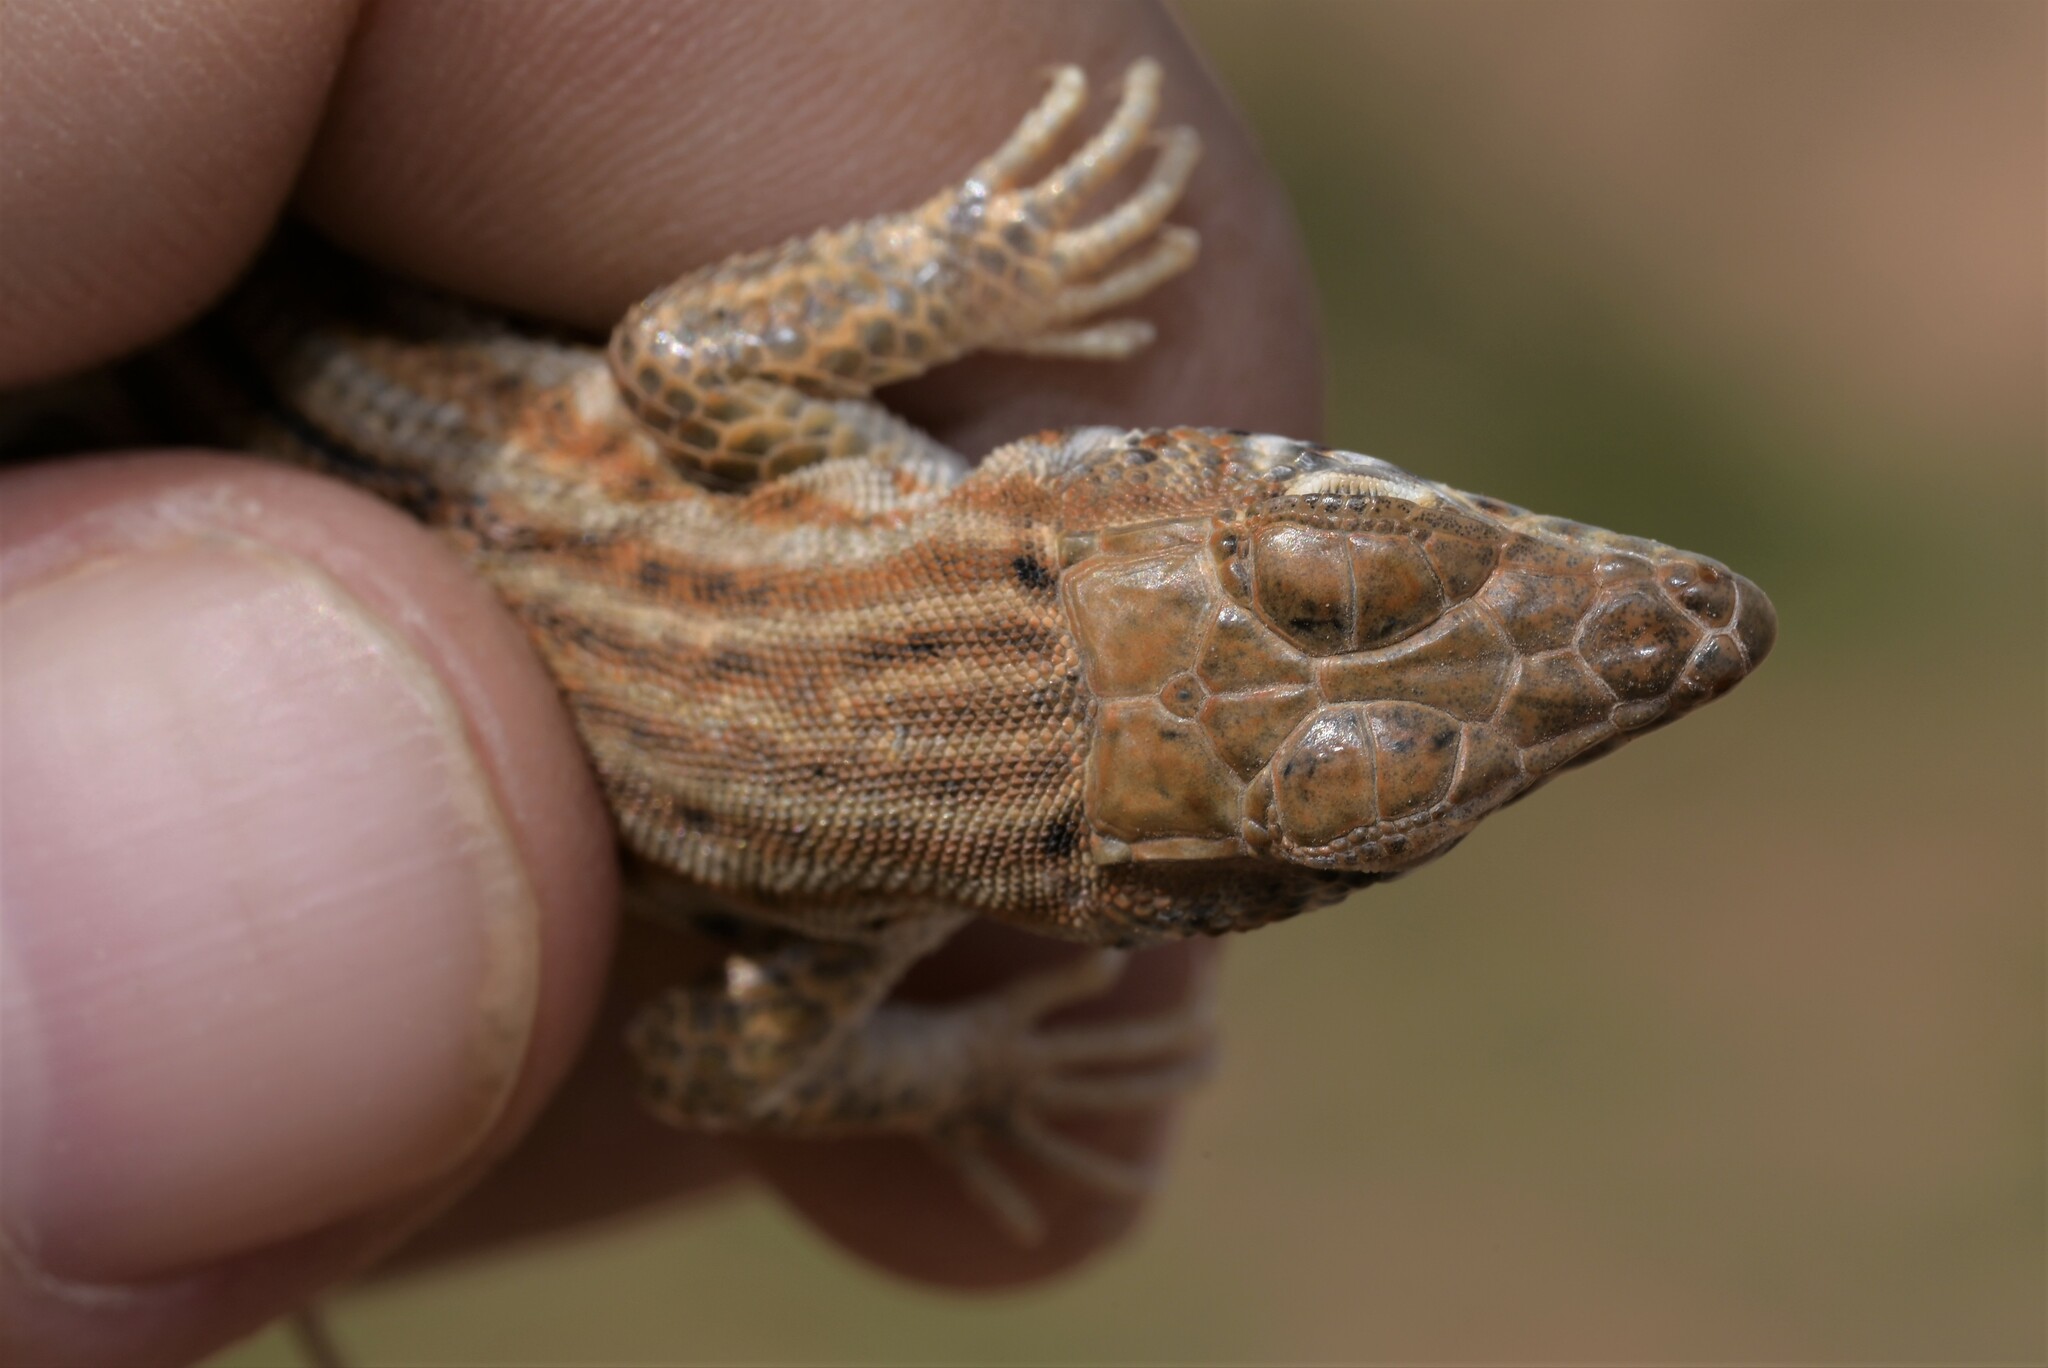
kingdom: Animalia
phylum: Chordata
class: Squamata
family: Lacertidae
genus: Acanthodactylus
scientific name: Acanthodactylus boskianus
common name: Bosc’s fringe-toed lizard
